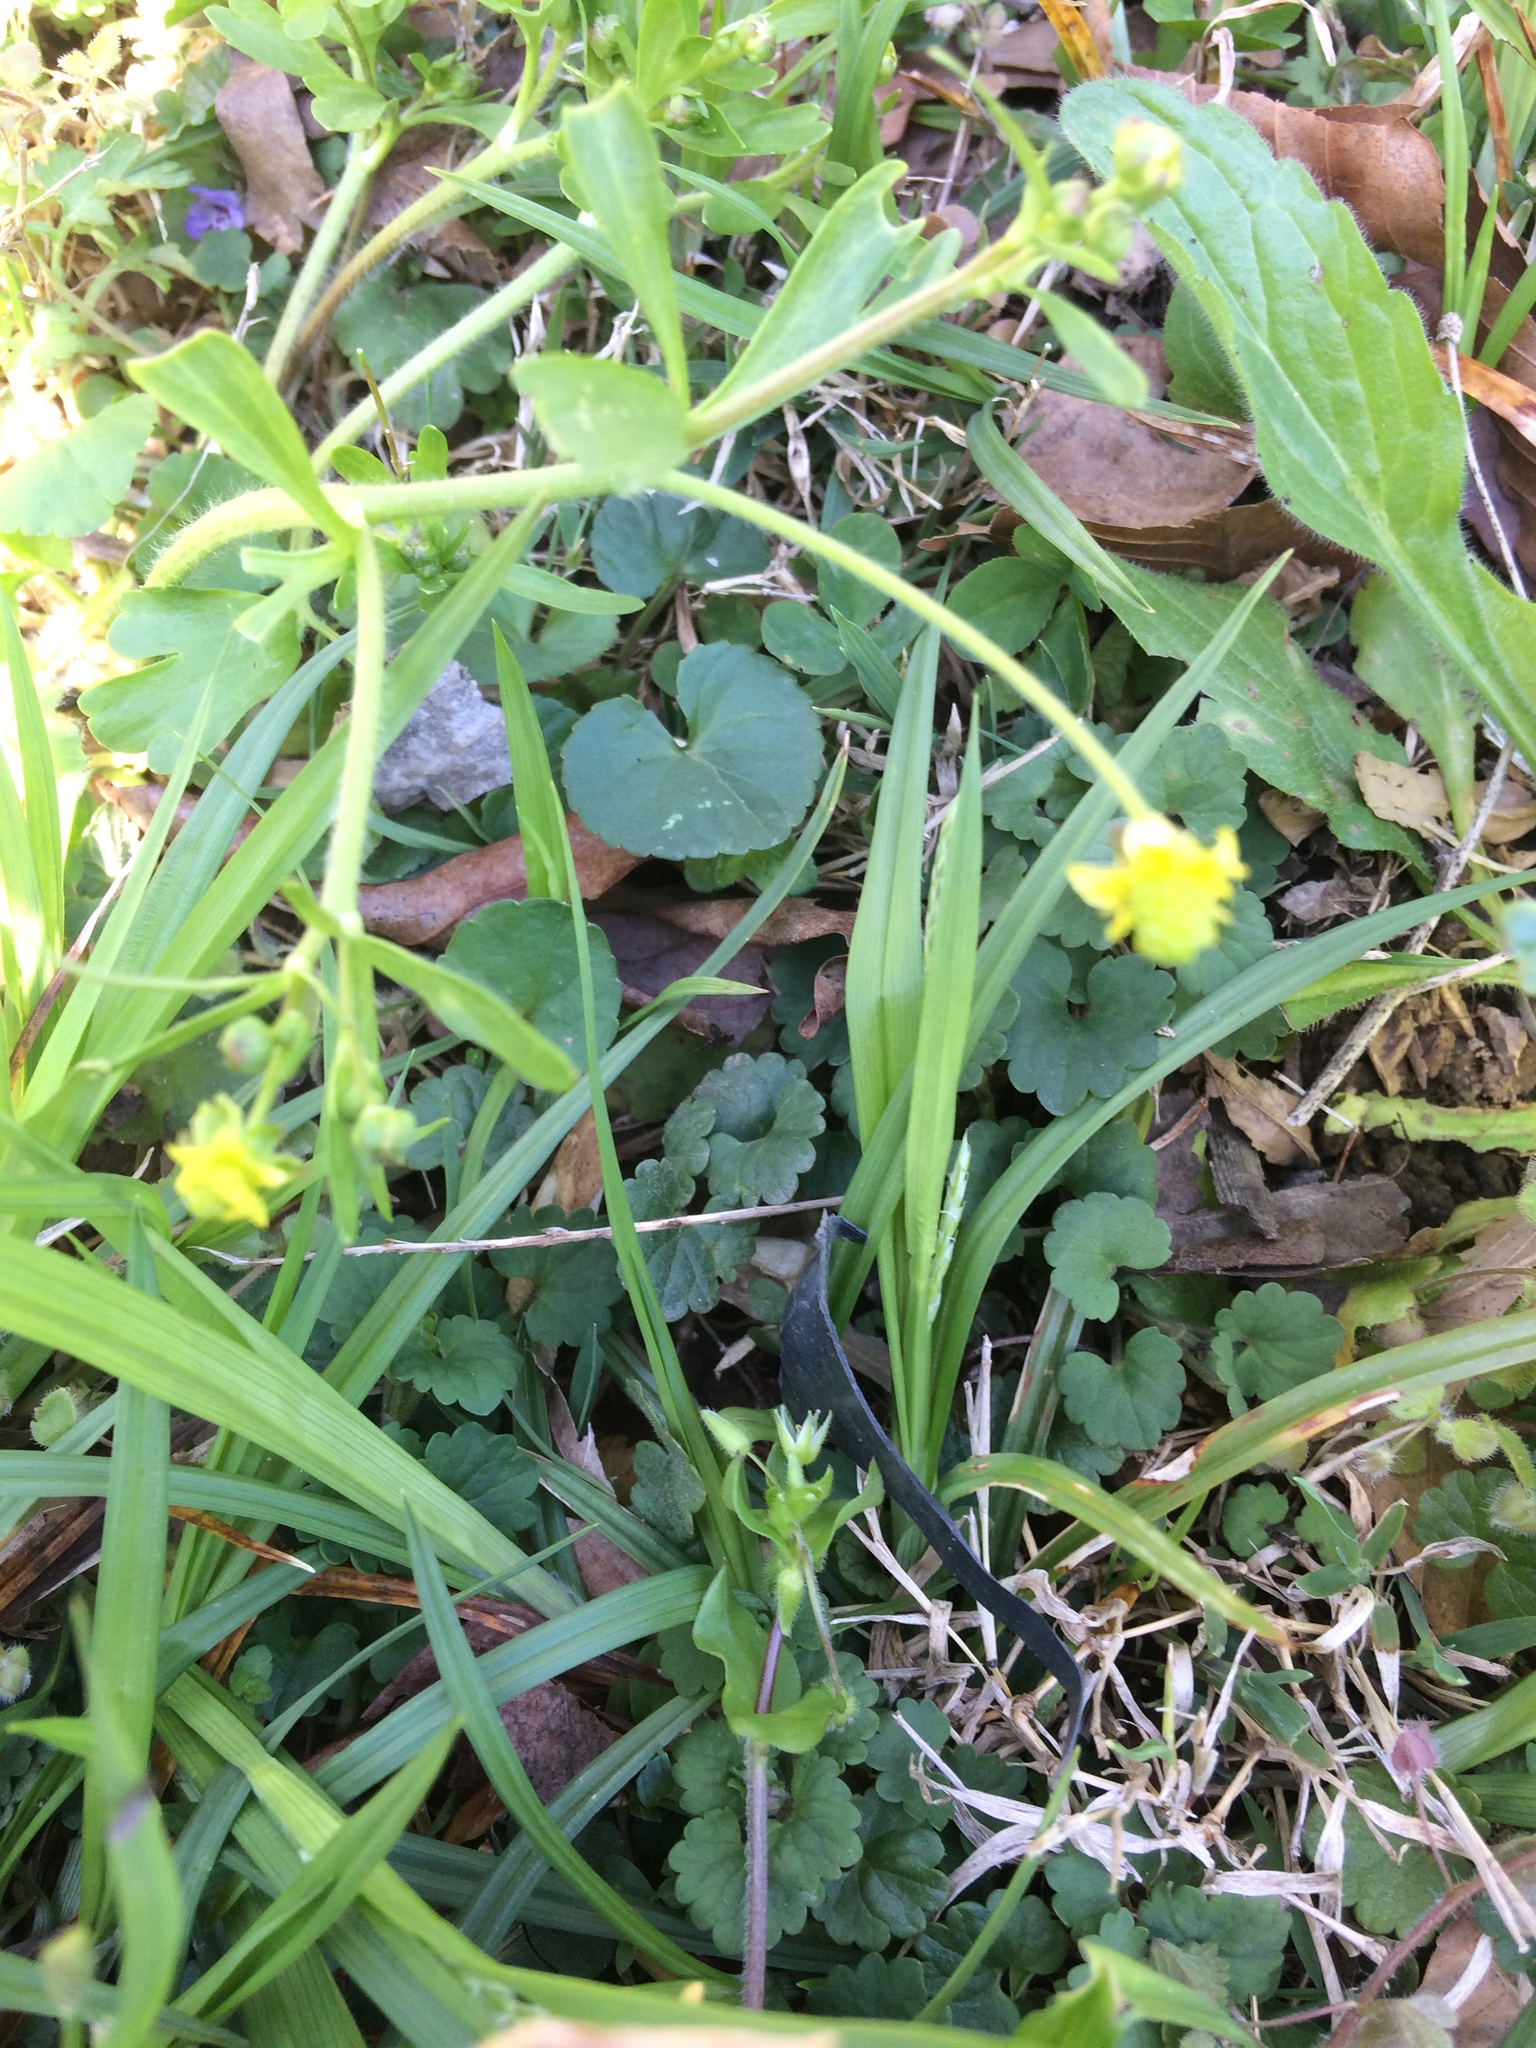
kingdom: Plantae
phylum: Tracheophyta
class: Magnoliopsida
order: Ranunculales
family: Ranunculaceae
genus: Ranunculus
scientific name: Ranunculus abortivus
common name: Early wood buttercup
